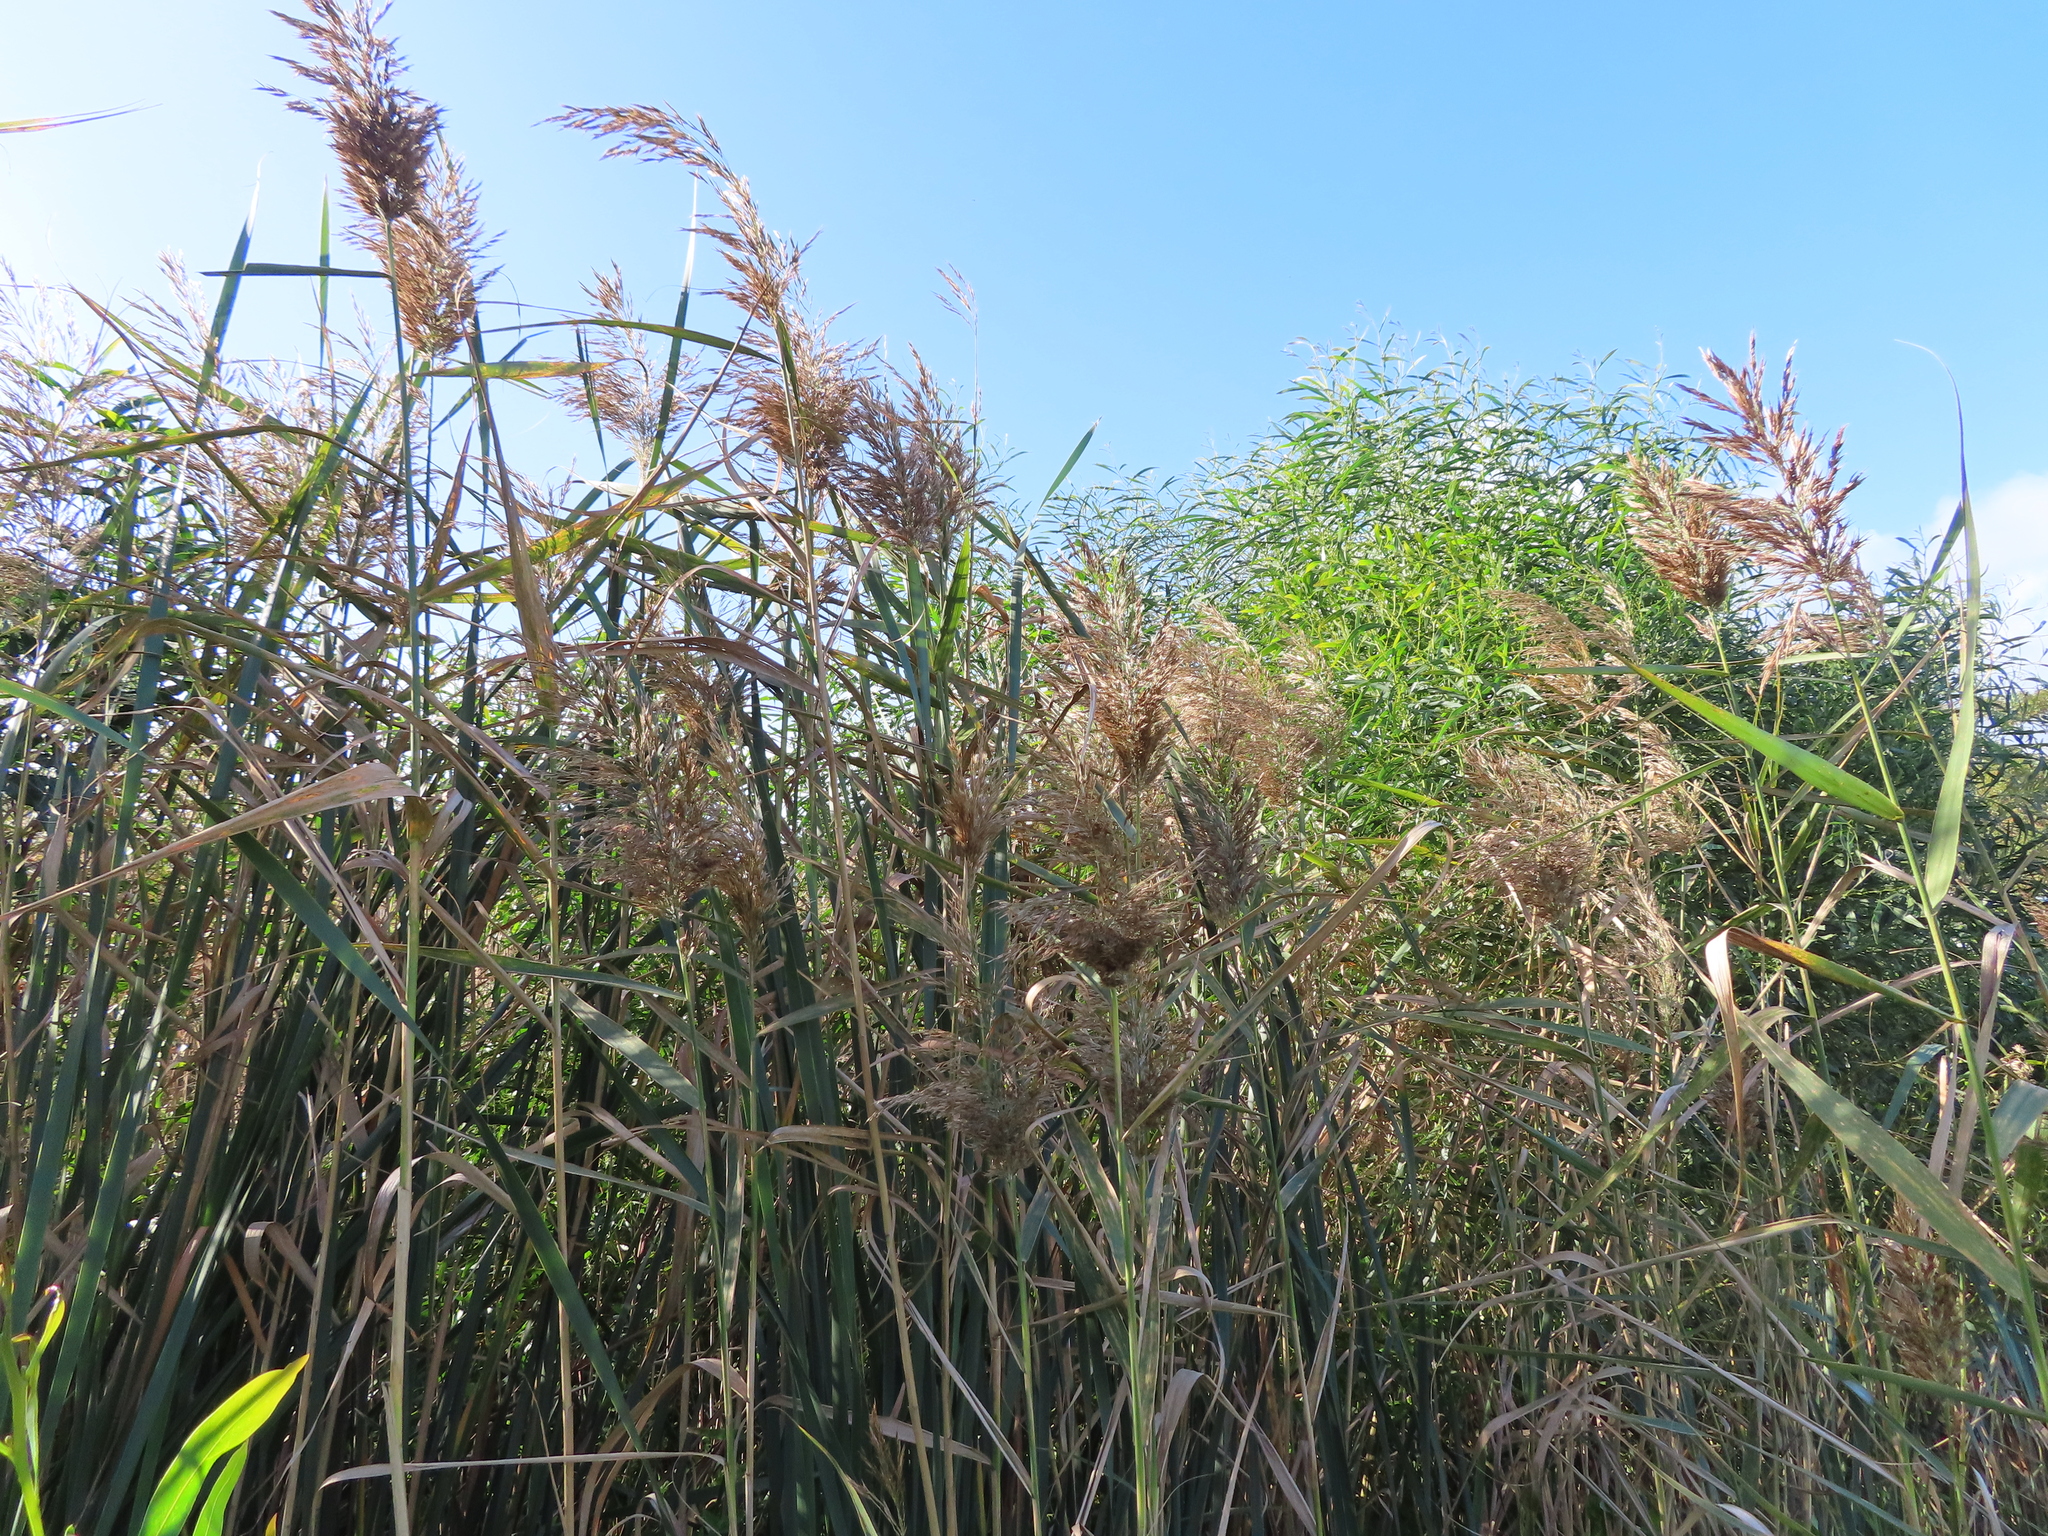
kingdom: Plantae
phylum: Tracheophyta
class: Liliopsida
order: Poales
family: Poaceae
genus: Phragmites
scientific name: Phragmites australis
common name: Common reed
